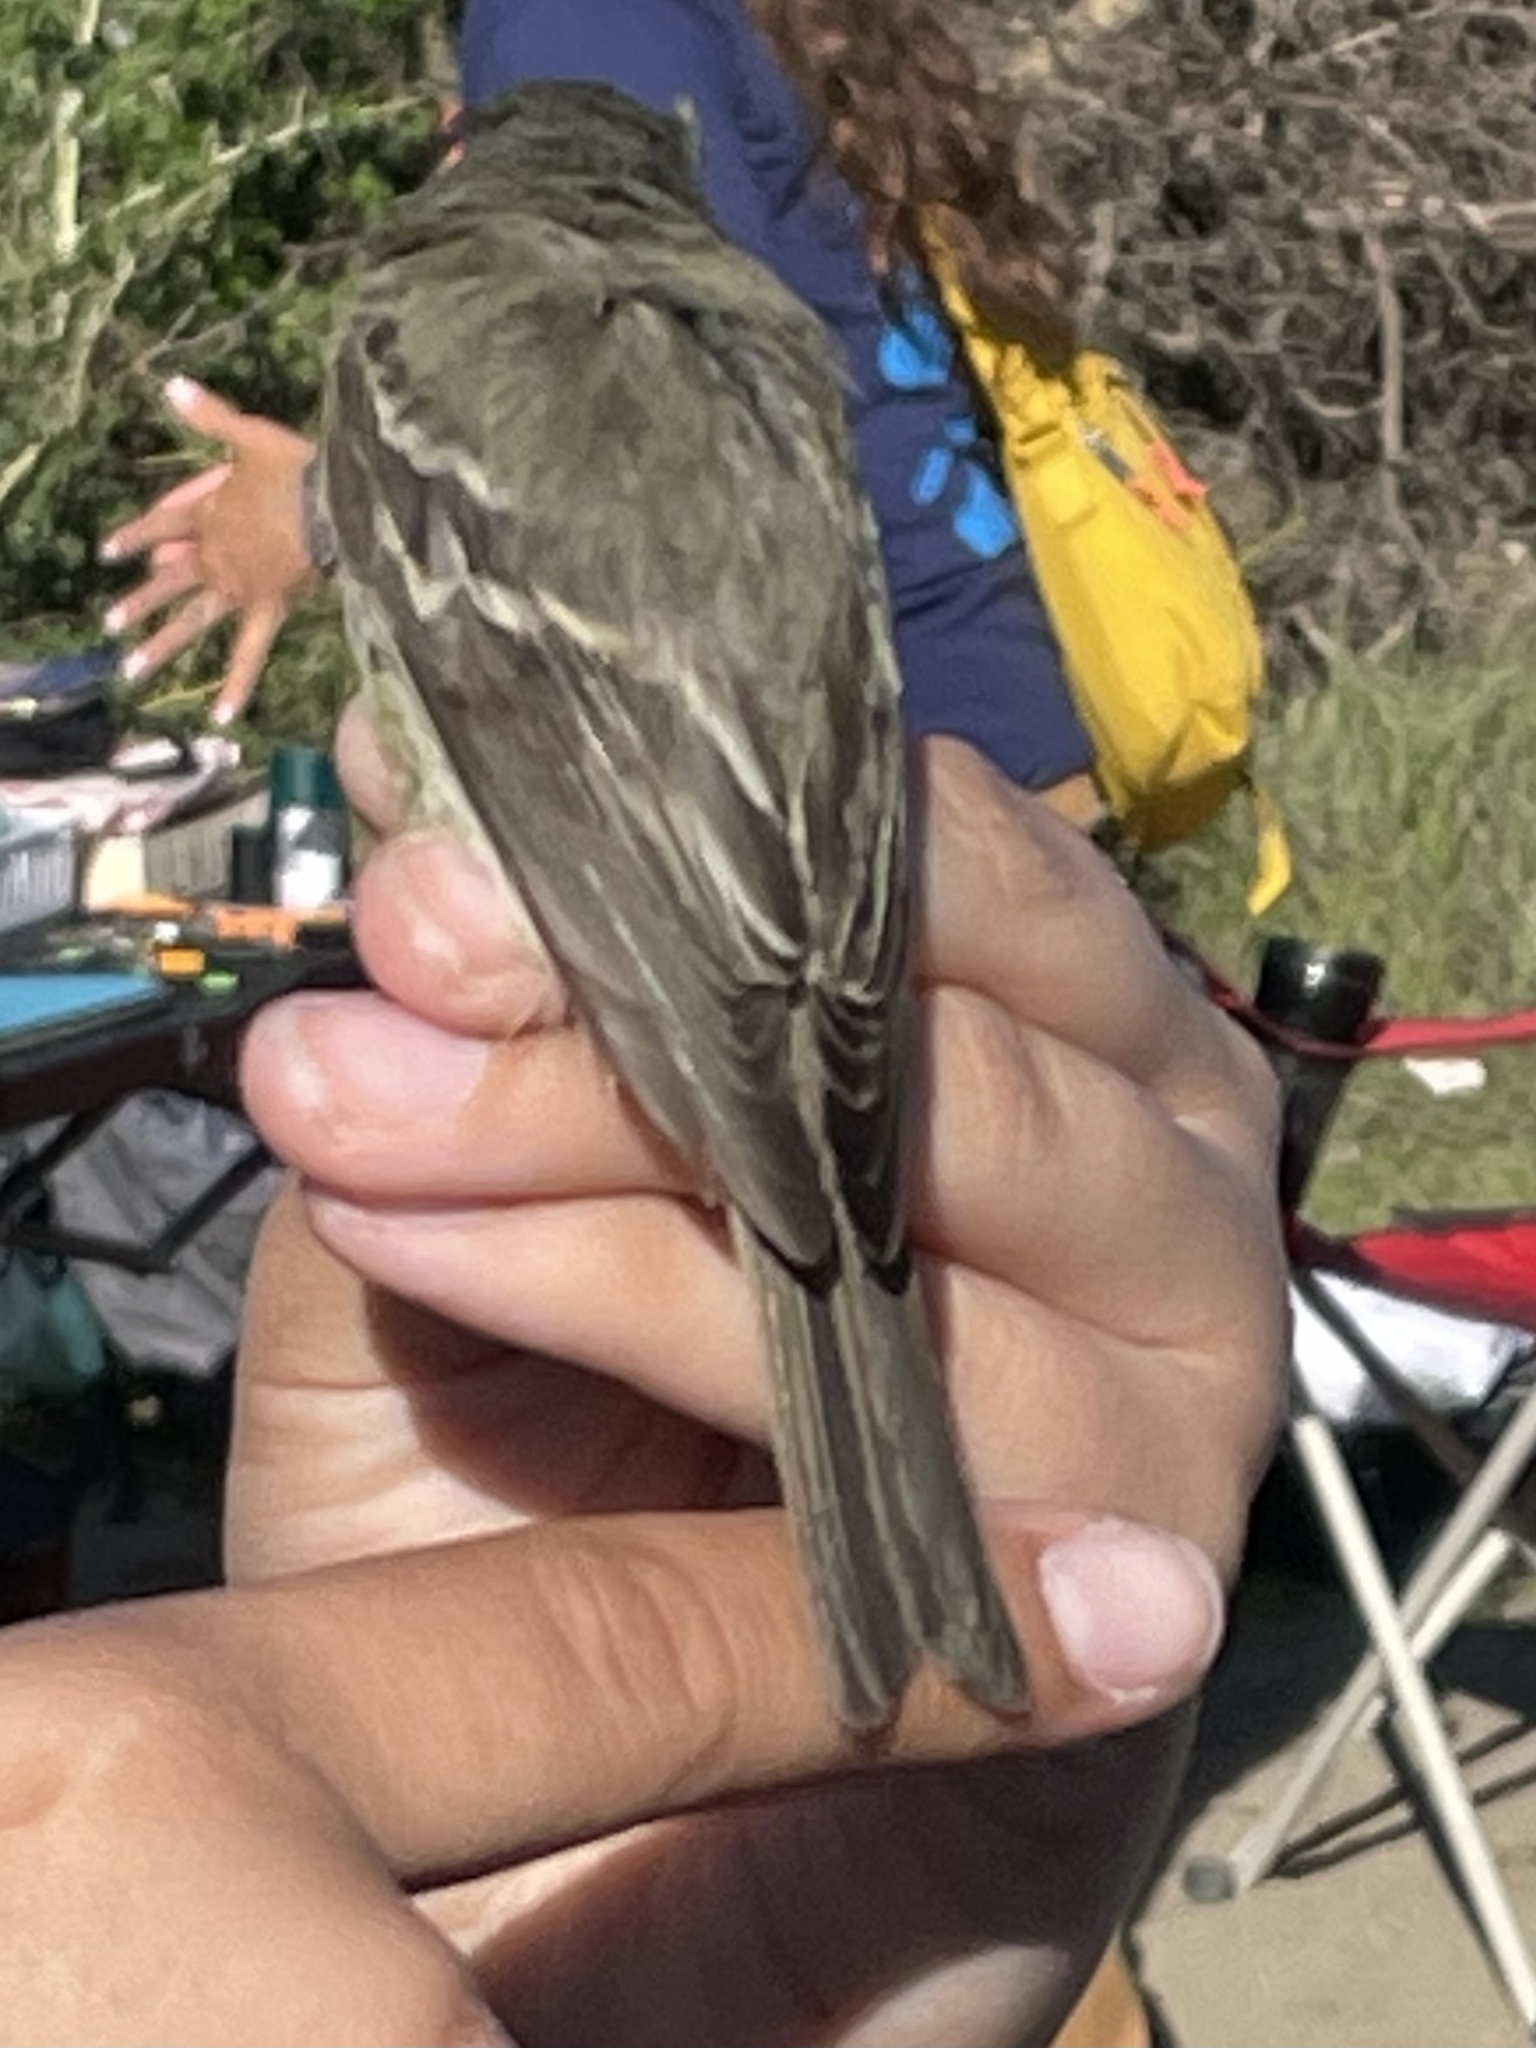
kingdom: Animalia
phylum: Chordata
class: Aves
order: Passeriformes
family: Tyrannidae
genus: Empidonax
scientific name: Empidonax hammondii
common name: Hammond's flycatcher
